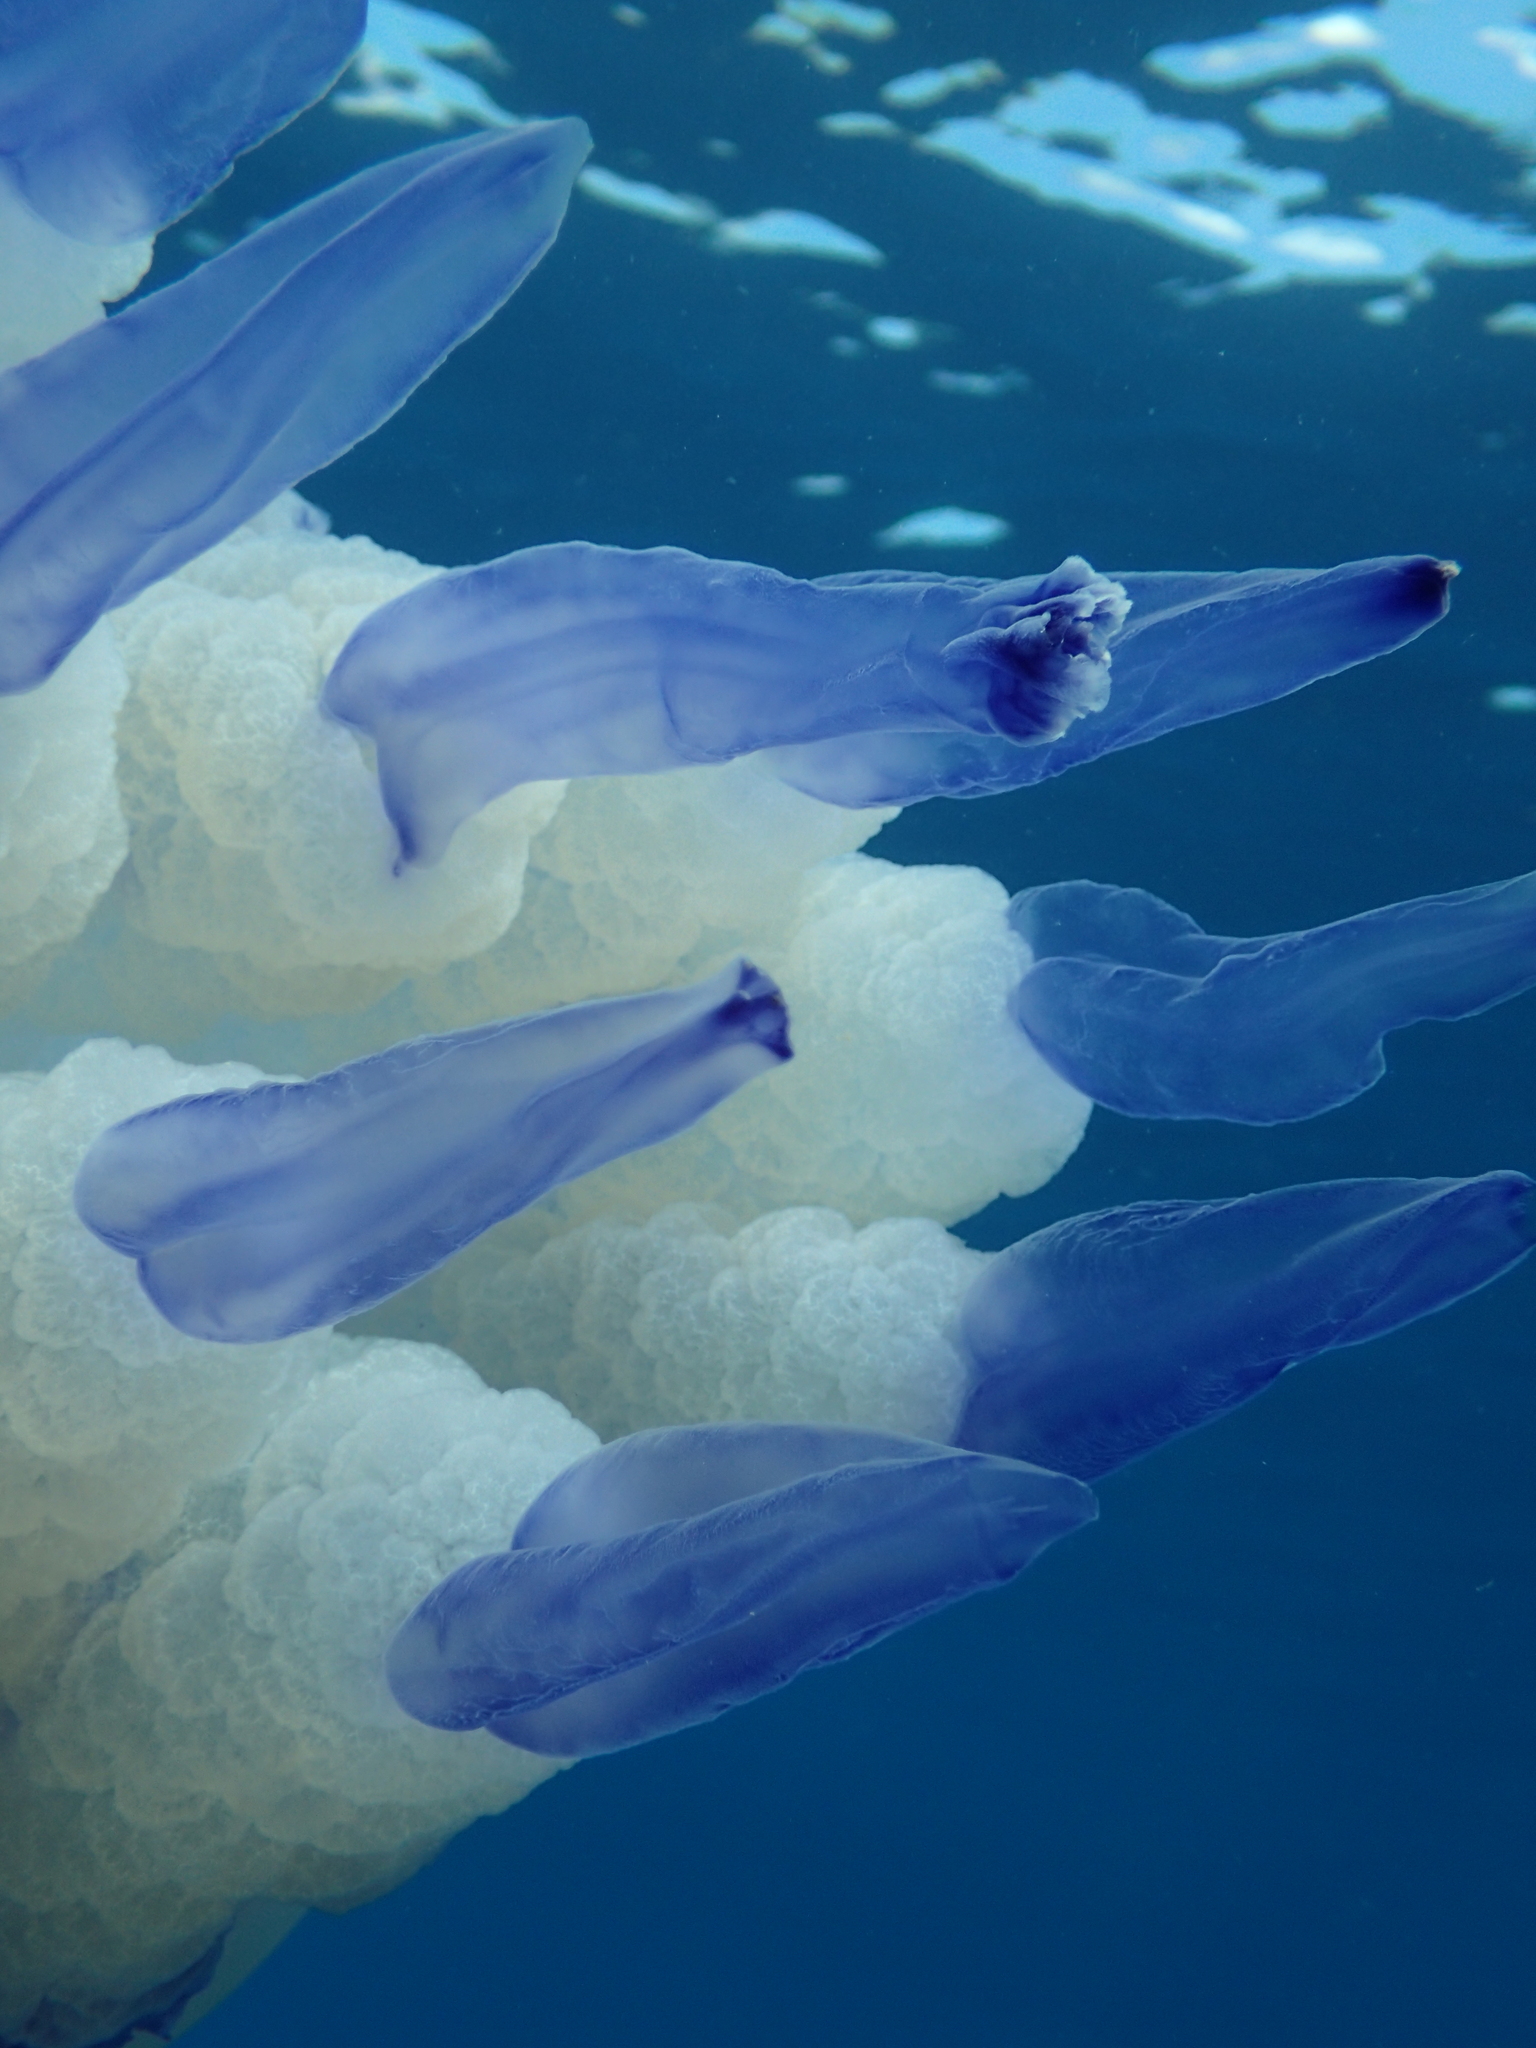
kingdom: Animalia
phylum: Cnidaria
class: Scyphozoa
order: Rhizostomeae
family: Rhizostomatidae
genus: Rhizostoma
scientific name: Rhizostoma pulmo
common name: Barrel jellyfish
